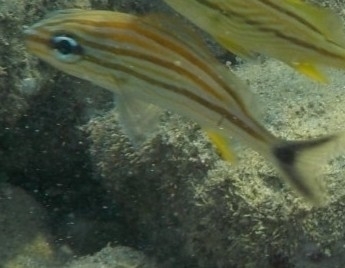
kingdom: Animalia
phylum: Chordata
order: Perciformes
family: Haemulidae
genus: Haemulon
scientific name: Haemulon aurolineatum
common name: Tomtate
